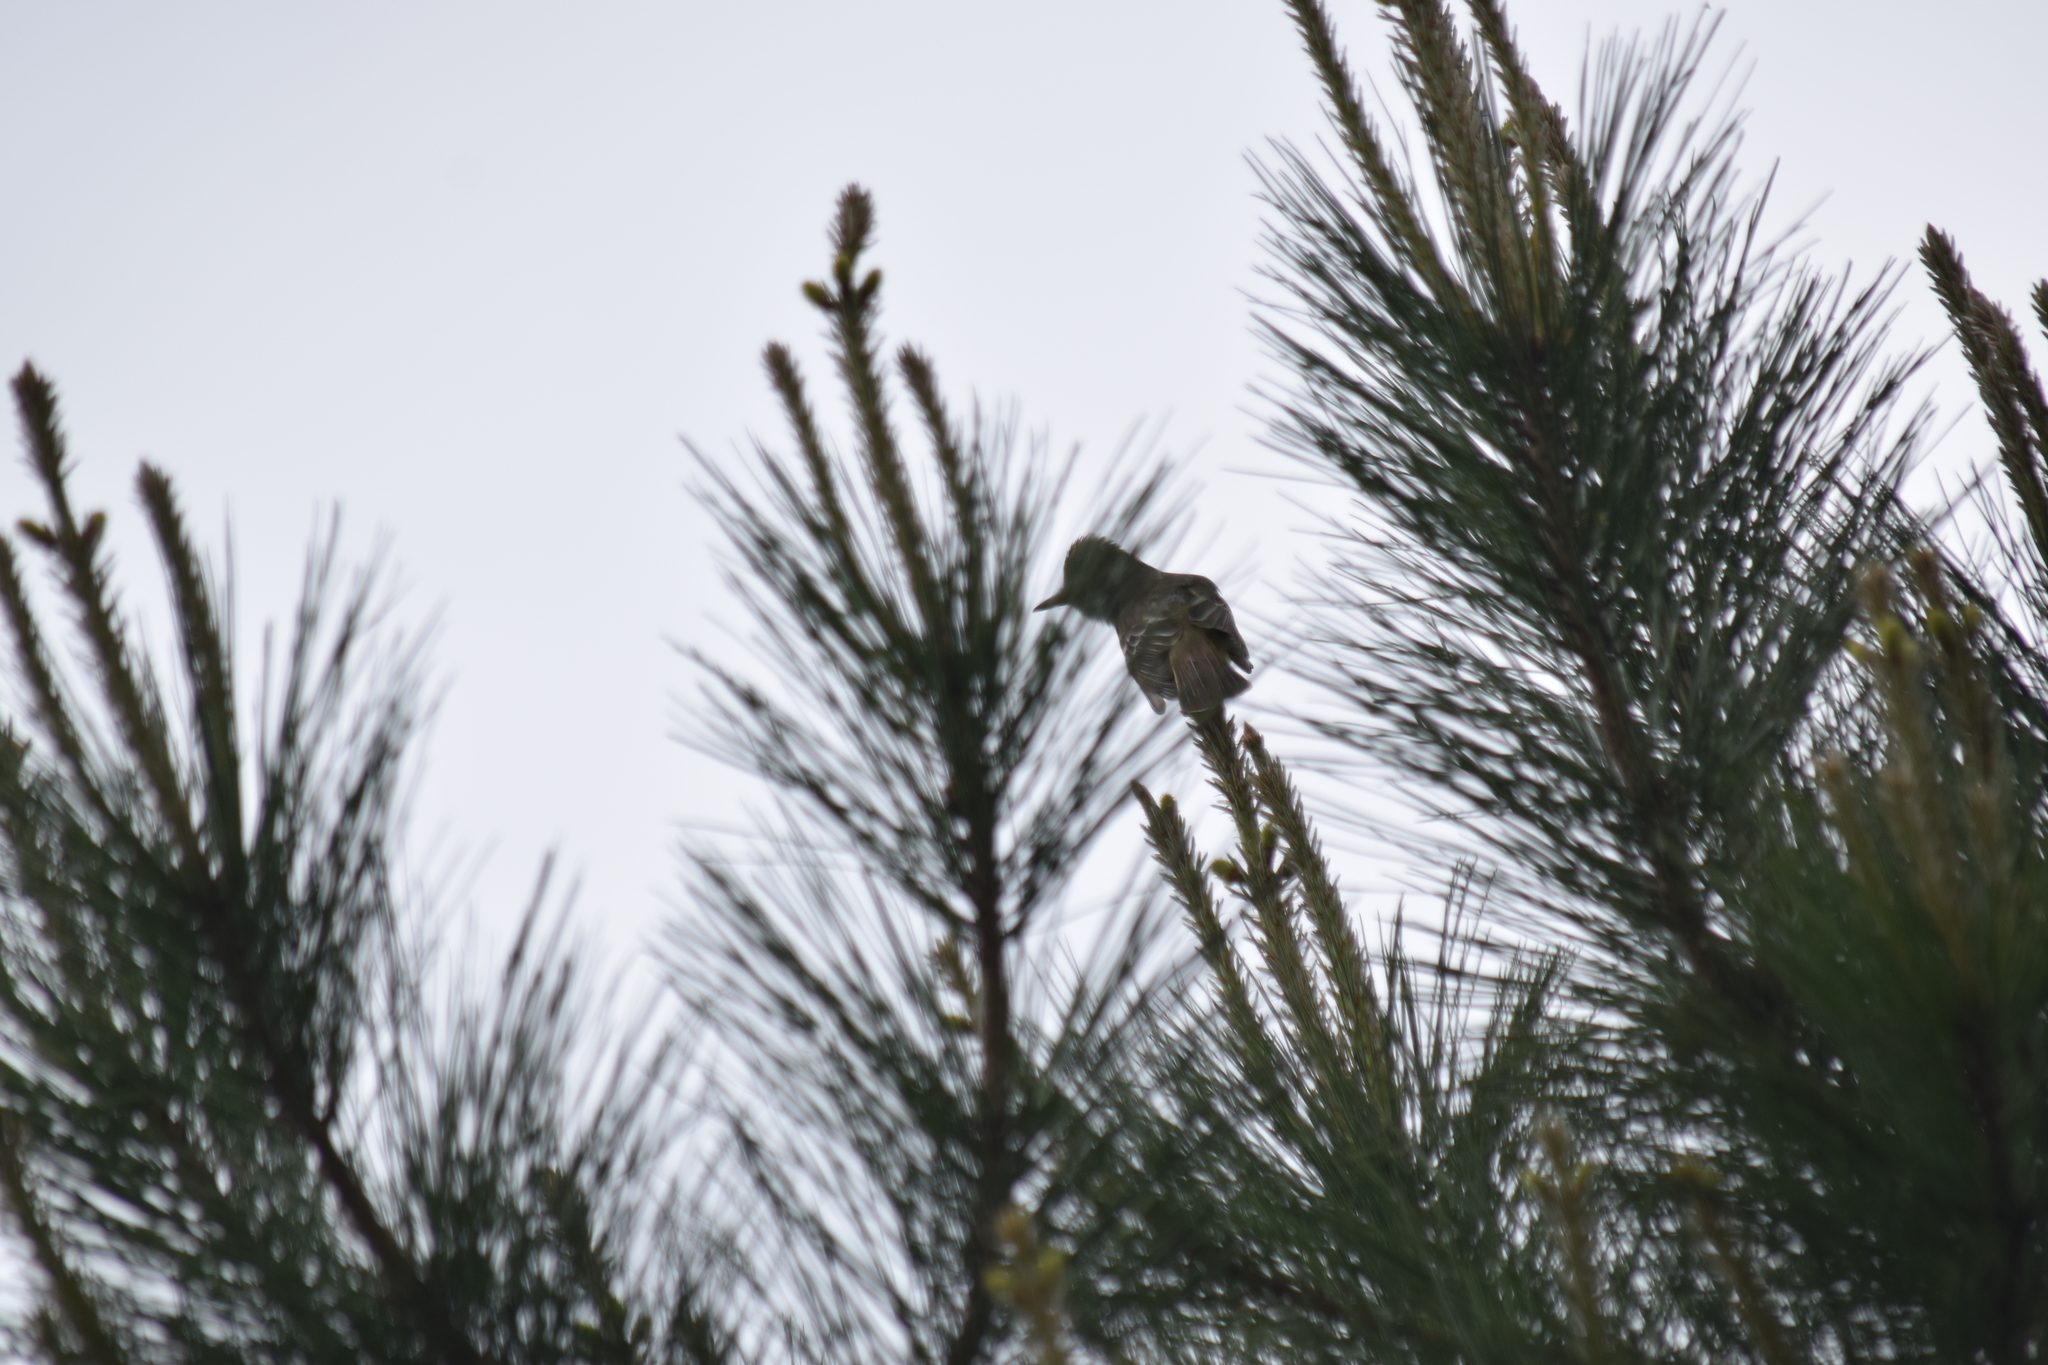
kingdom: Animalia
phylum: Chordata
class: Aves
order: Passeriformes
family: Tyrannidae
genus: Myiarchus
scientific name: Myiarchus crinitus
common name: Great crested flycatcher
